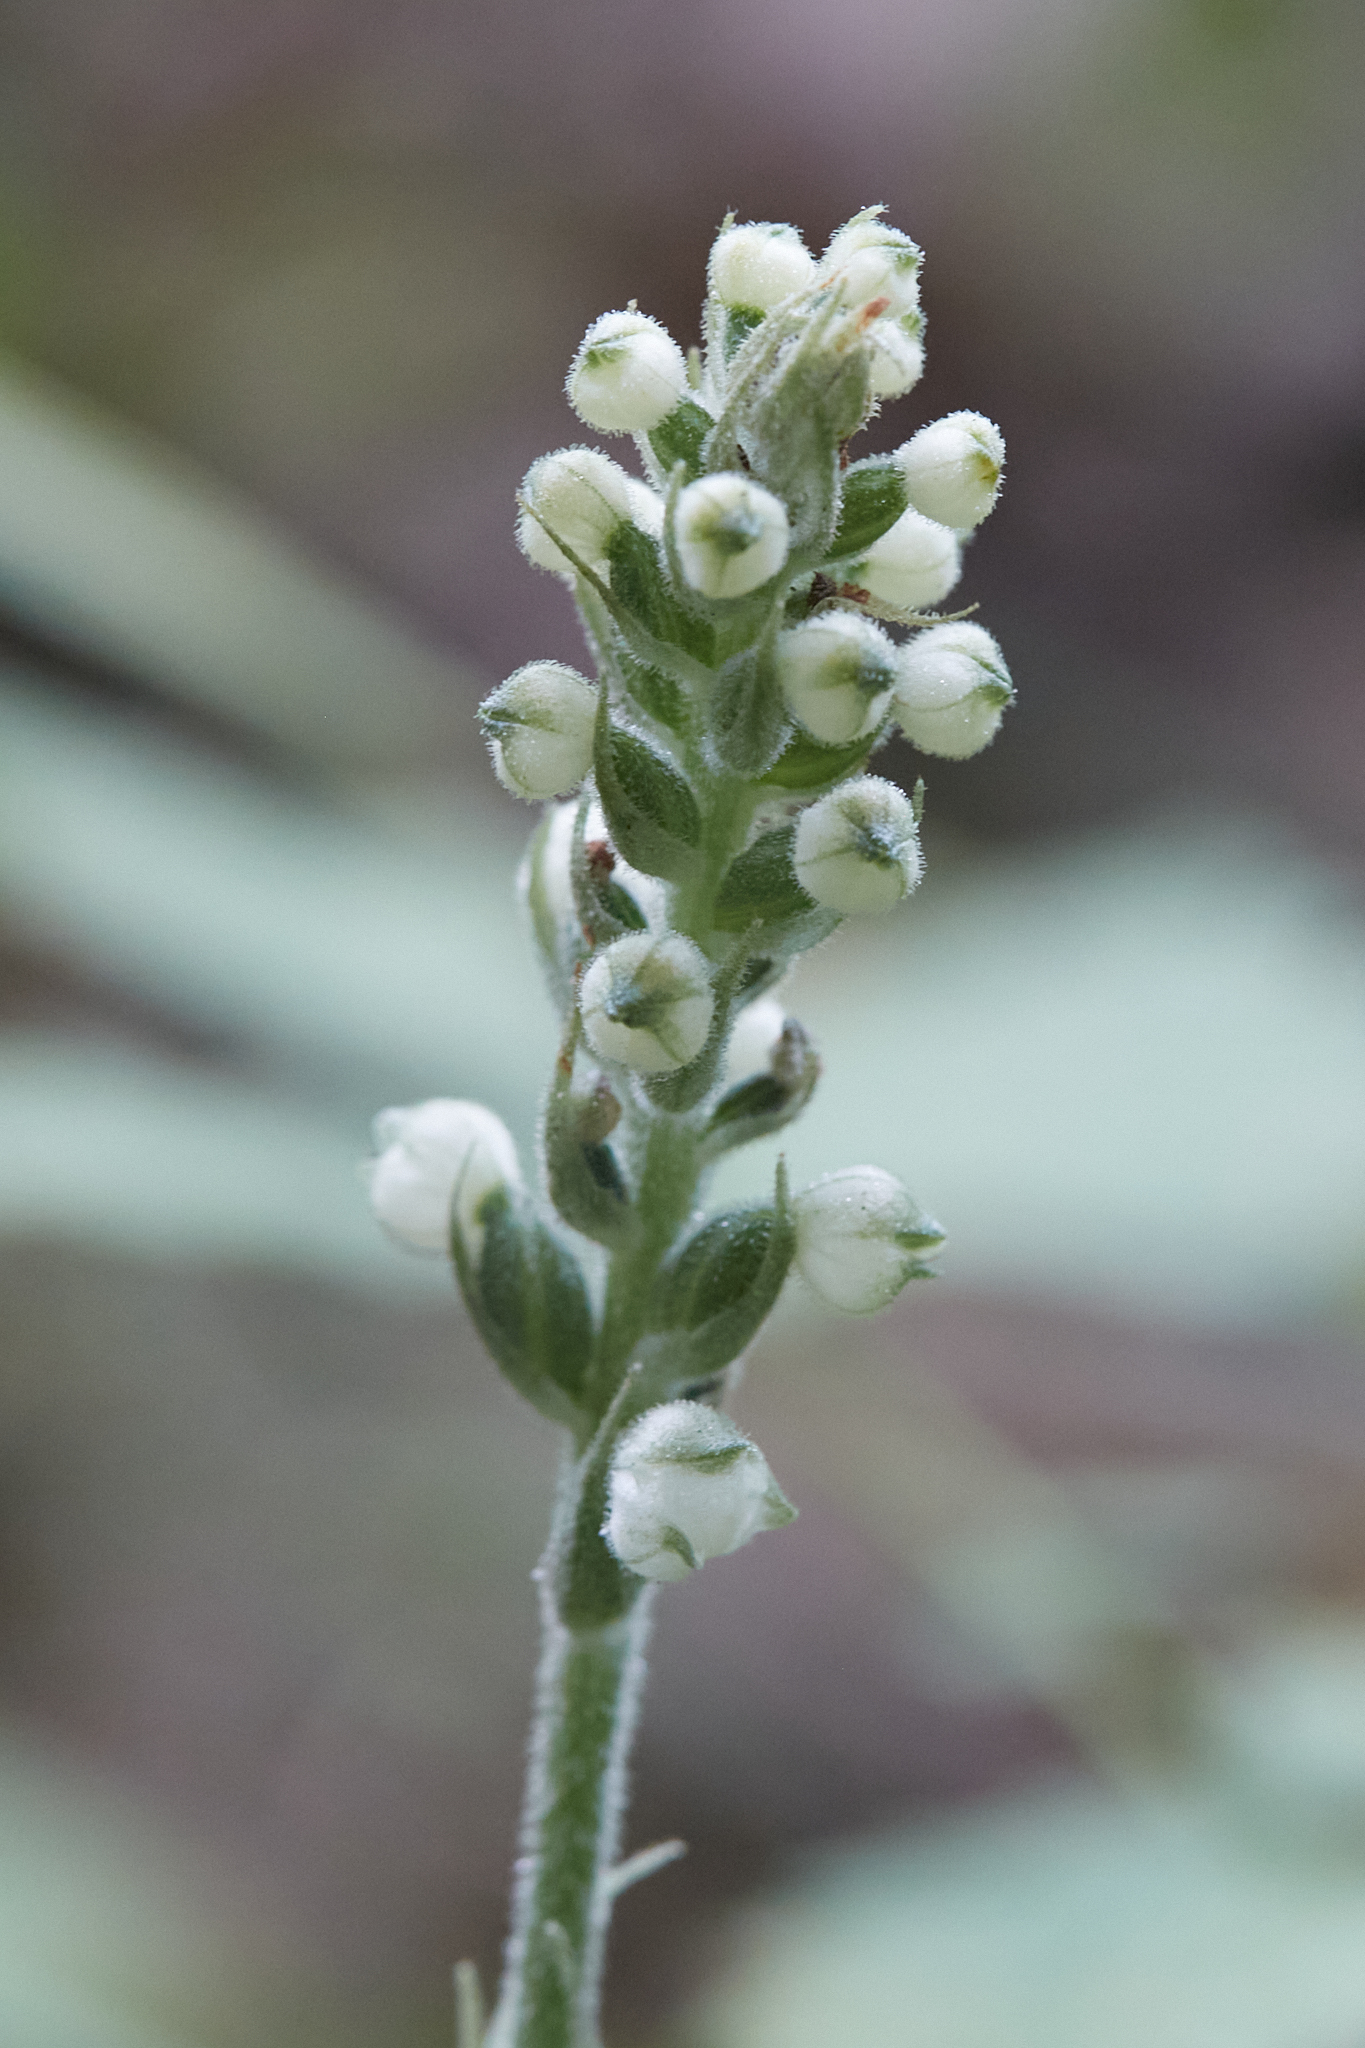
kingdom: Plantae
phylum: Tracheophyta
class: Liliopsida
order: Asparagales
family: Orchidaceae
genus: Goodyera
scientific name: Goodyera pubescens
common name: Downy rattlesnake-plantain
